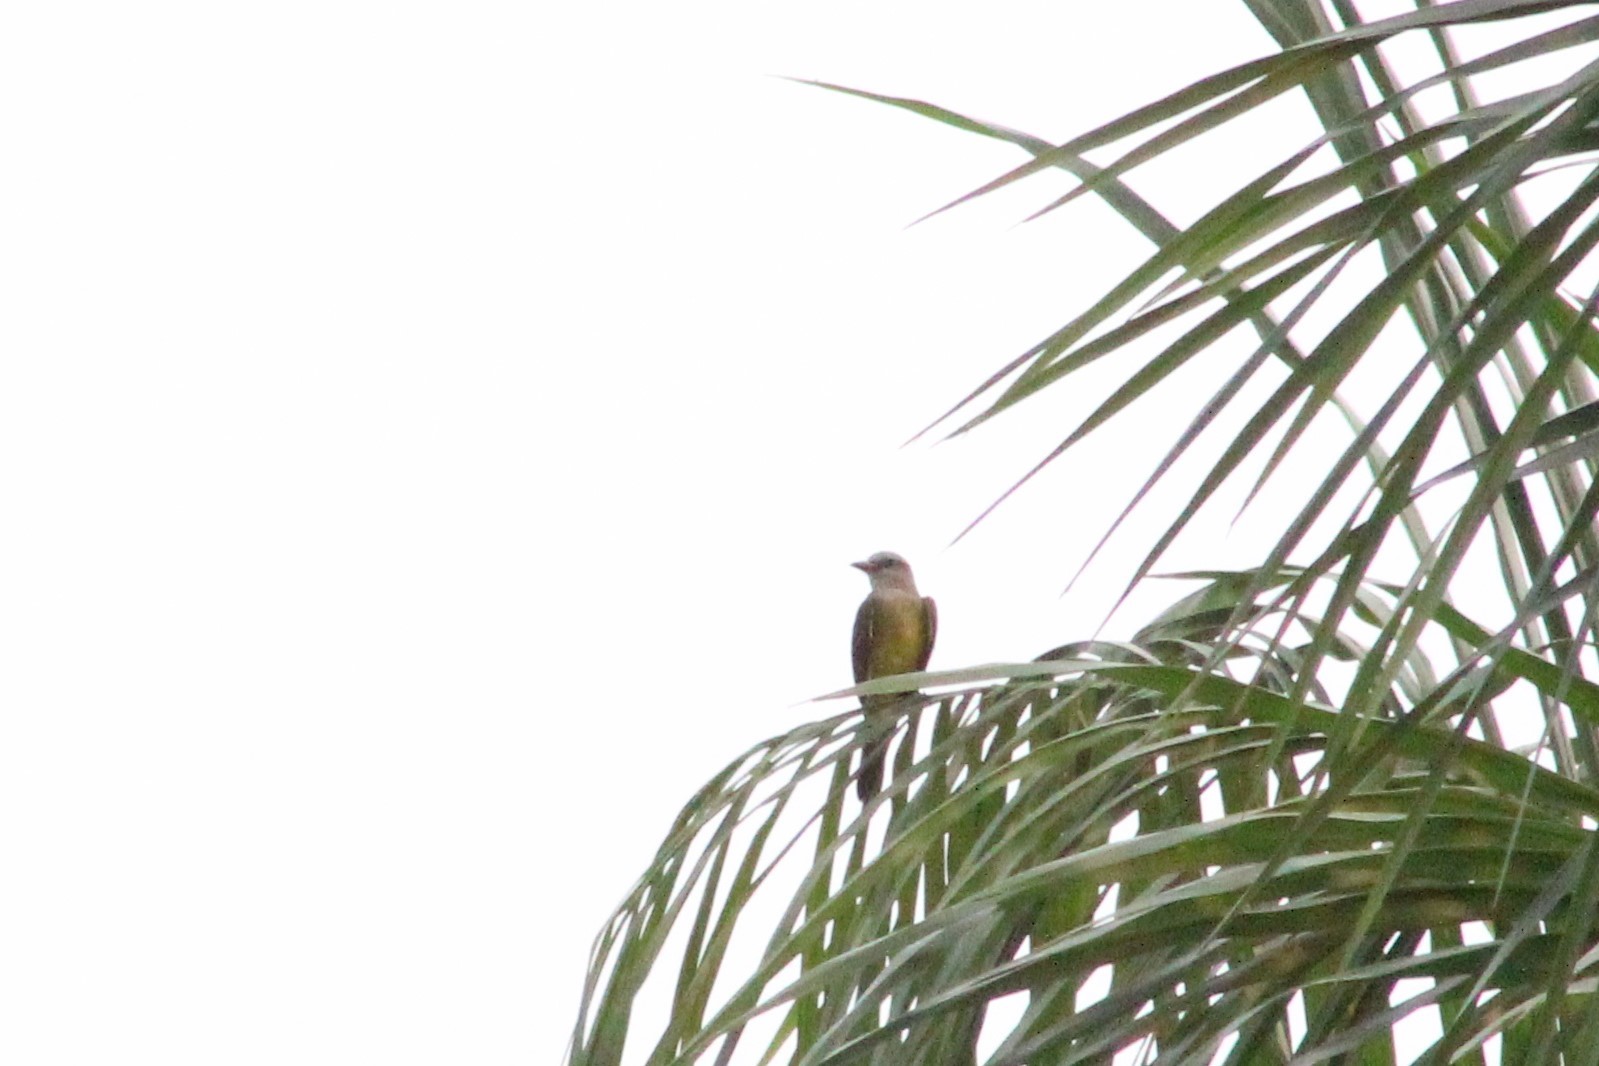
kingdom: Animalia
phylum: Chordata
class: Aves
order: Passeriformes
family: Tyrannidae
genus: Tyrannus
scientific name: Tyrannus melancholicus
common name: Tropical kingbird
